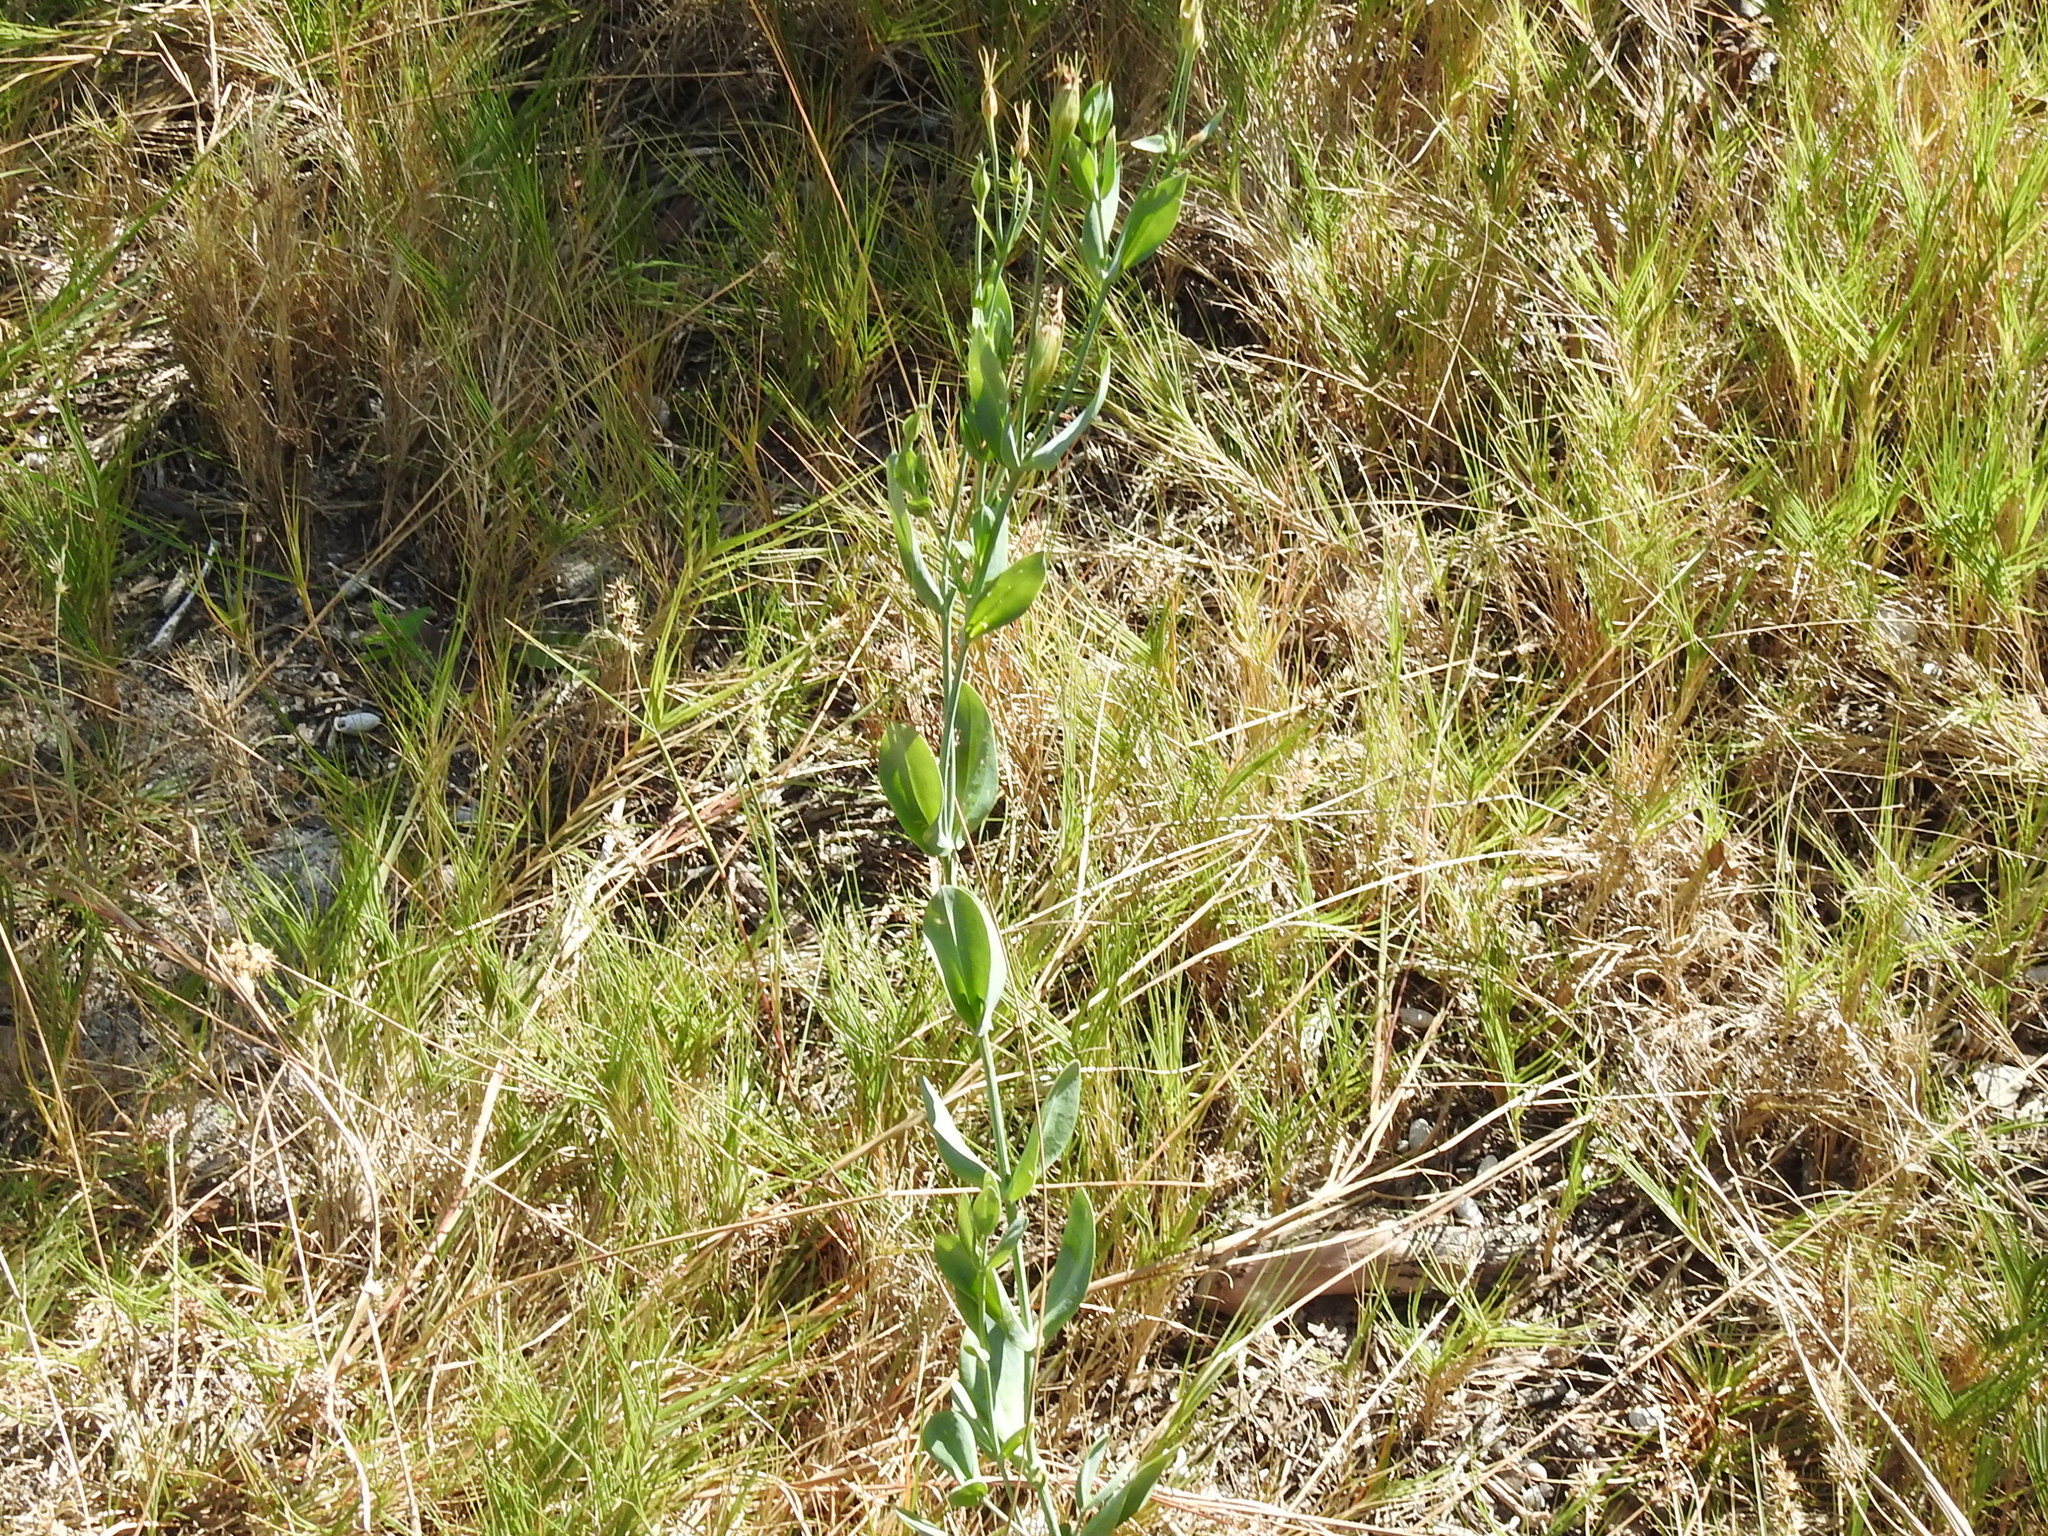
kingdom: Plantae
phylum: Tracheophyta
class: Magnoliopsida
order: Gentianales
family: Gentianaceae
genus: Eustoma
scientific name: Eustoma exaltatum
